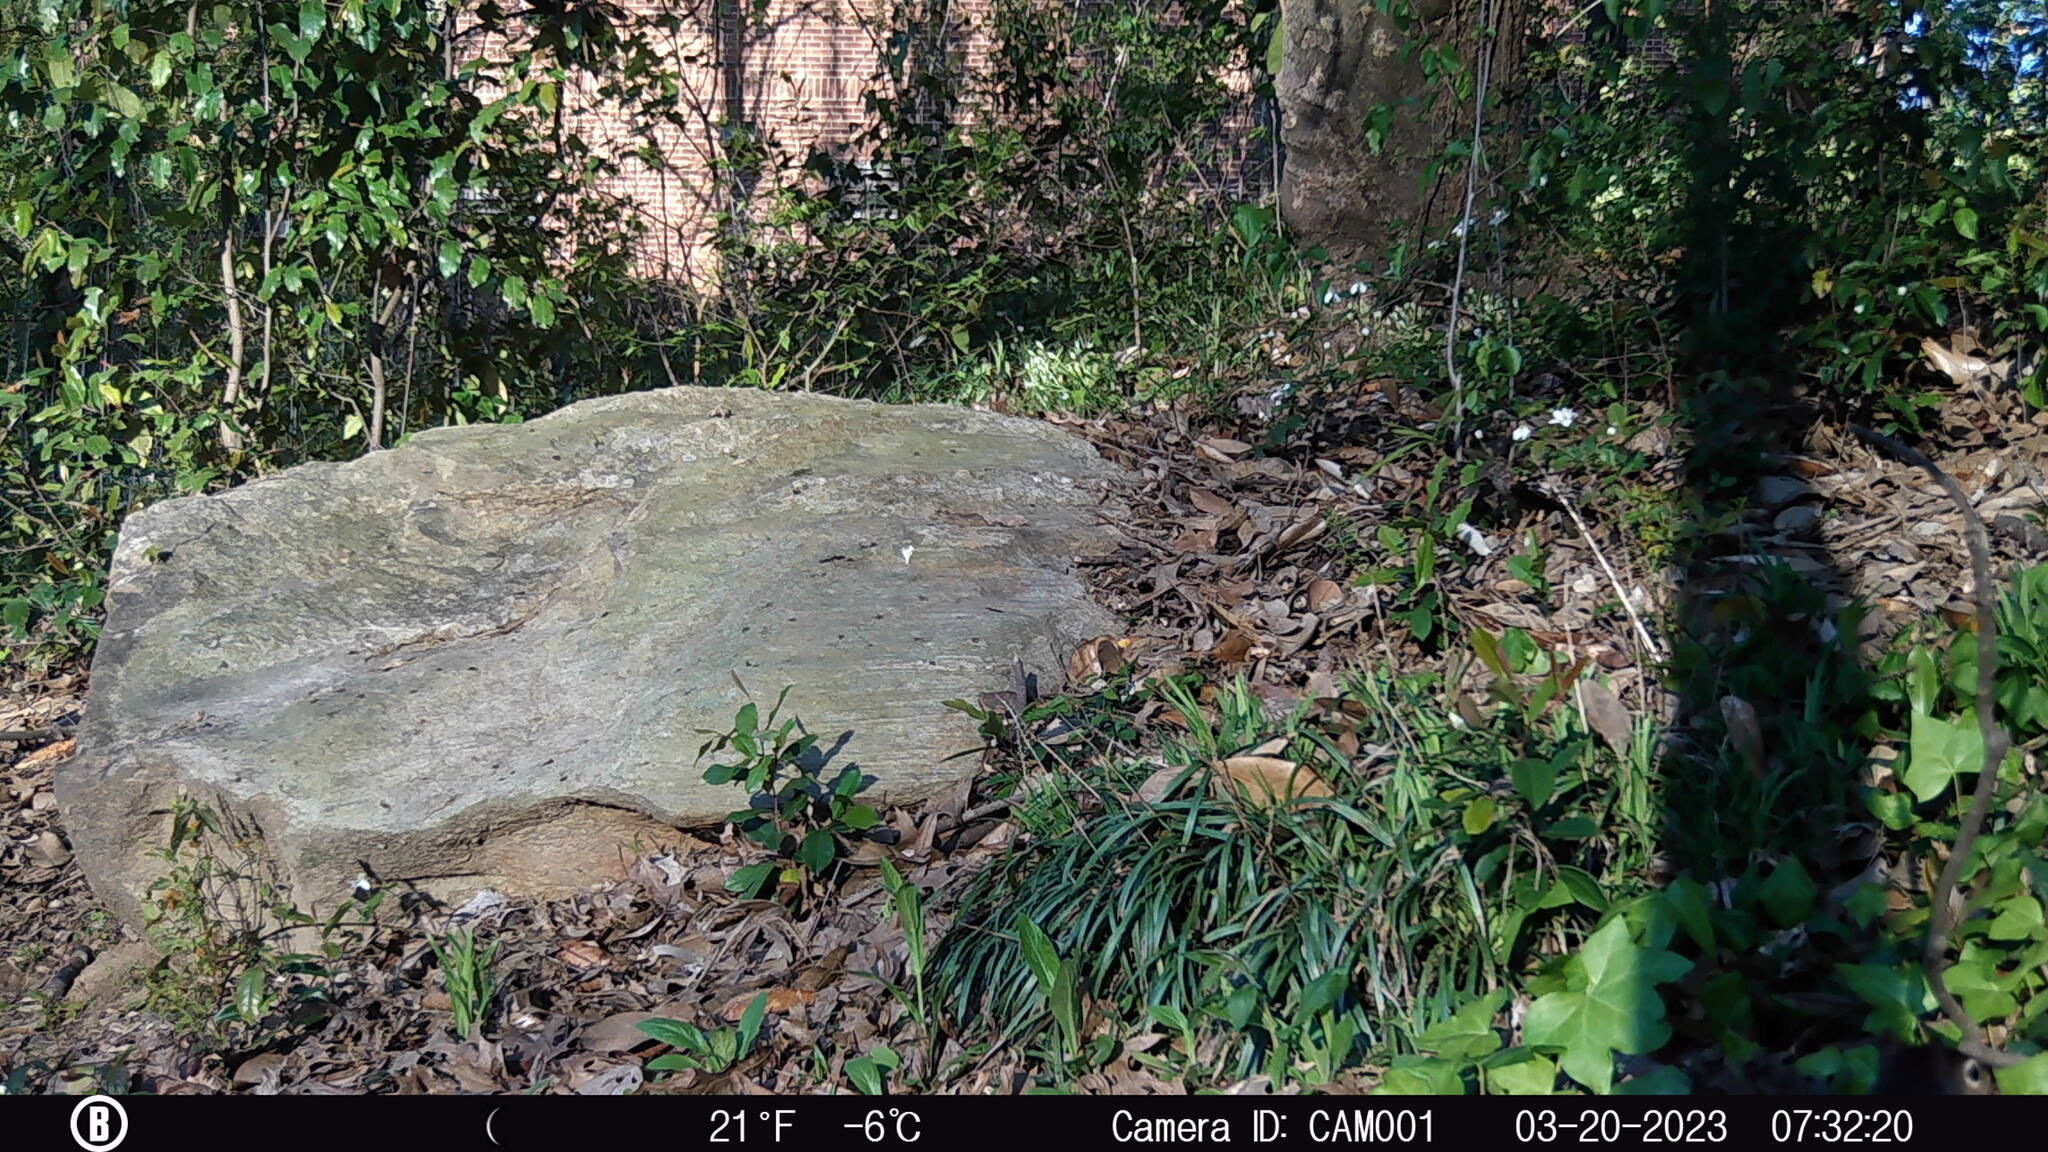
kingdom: Animalia
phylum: Chordata
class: Mammalia
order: Rodentia
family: Sciuridae
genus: Sciurus
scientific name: Sciurus carolinensis
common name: Eastern gray squirrel
